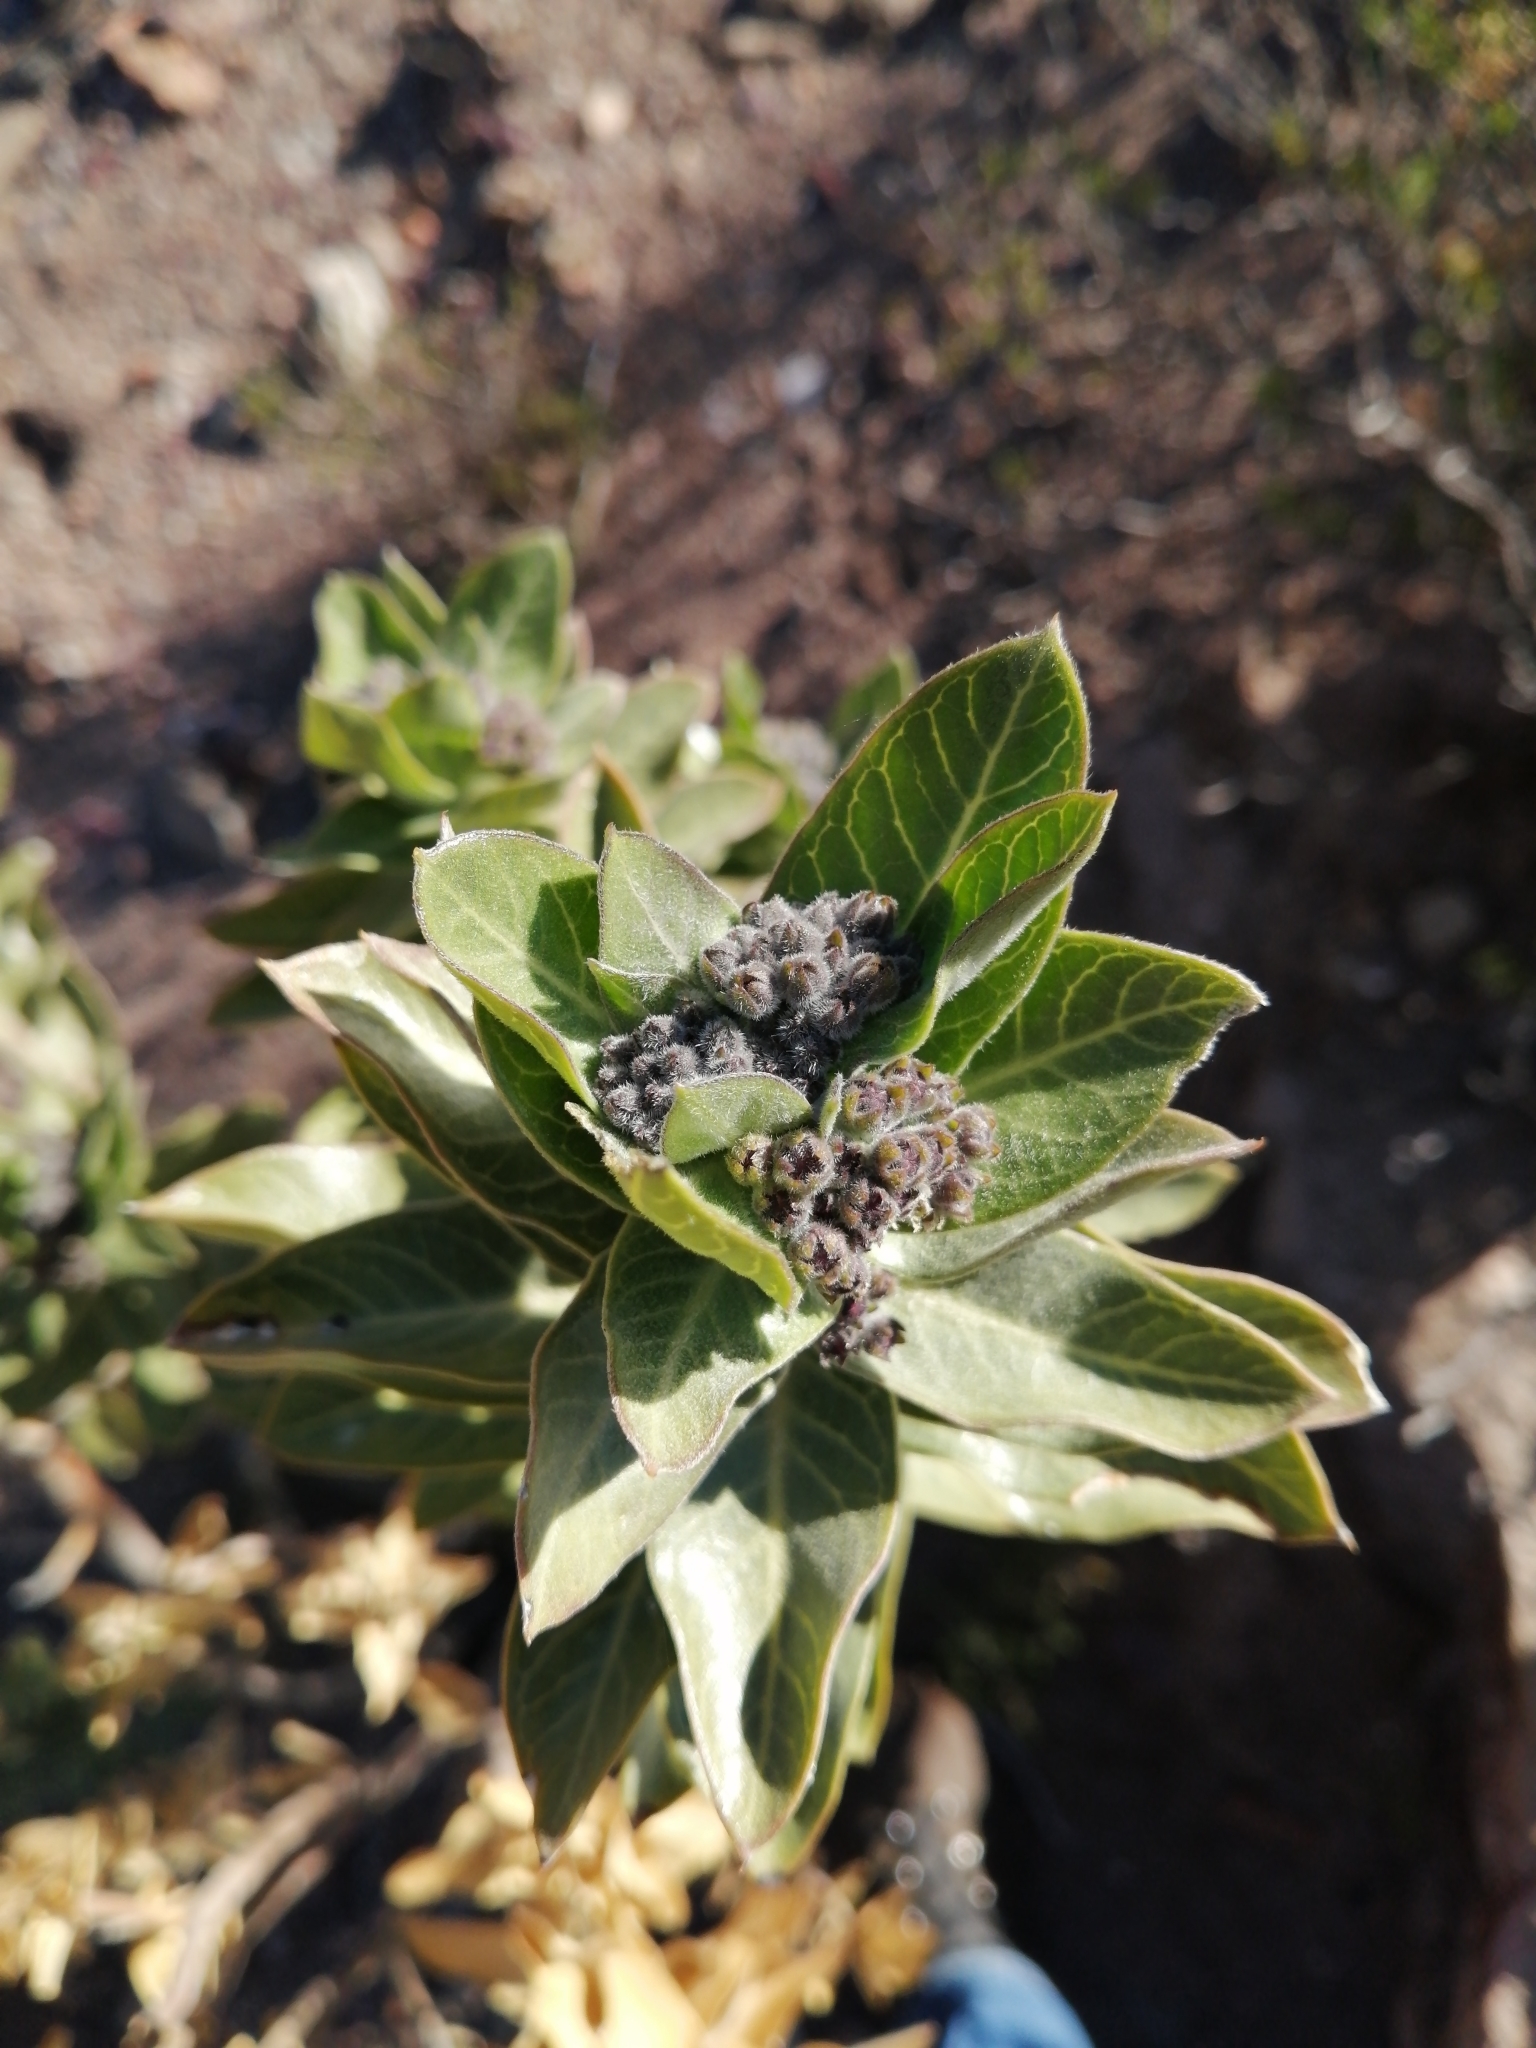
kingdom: Plantae
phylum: Tracheophyta
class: Magnoliopsida
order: Gentianales
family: Apocynaceae
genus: Gomphocarpus
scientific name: Gomphocarpus cancellatus
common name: Wild cotton
